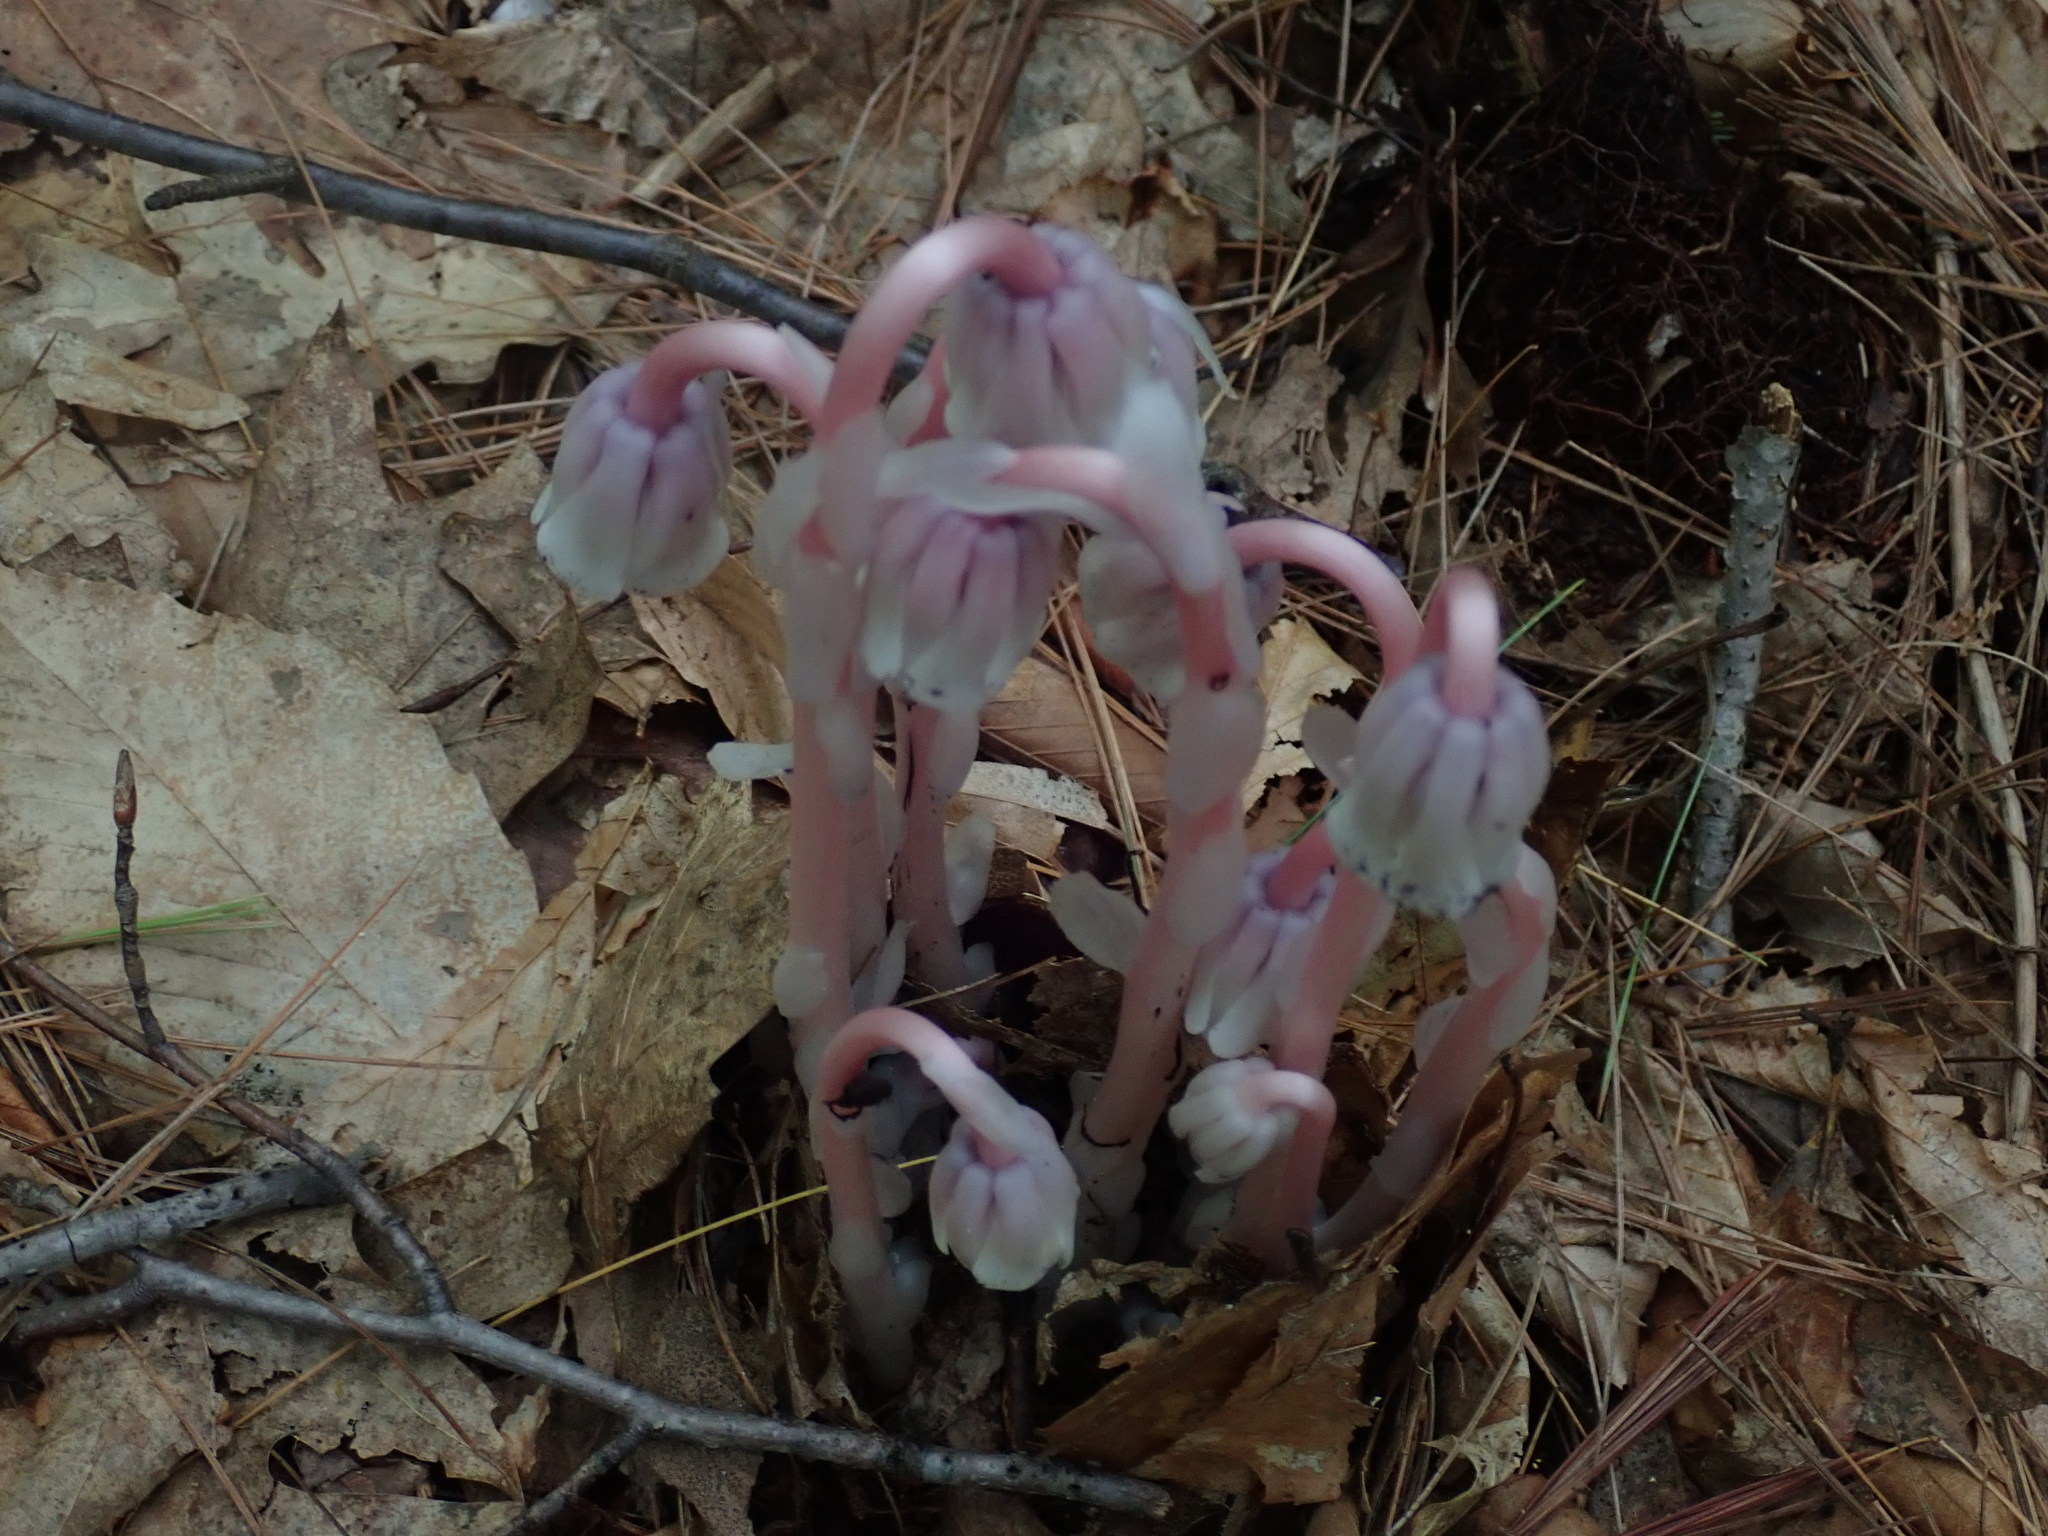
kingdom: Plantae
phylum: Tracheophyta
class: Magnoliopsida
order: Ericales
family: Ericaceae
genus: Monotropa
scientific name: Monotropa uniflora
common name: Convulsion root
